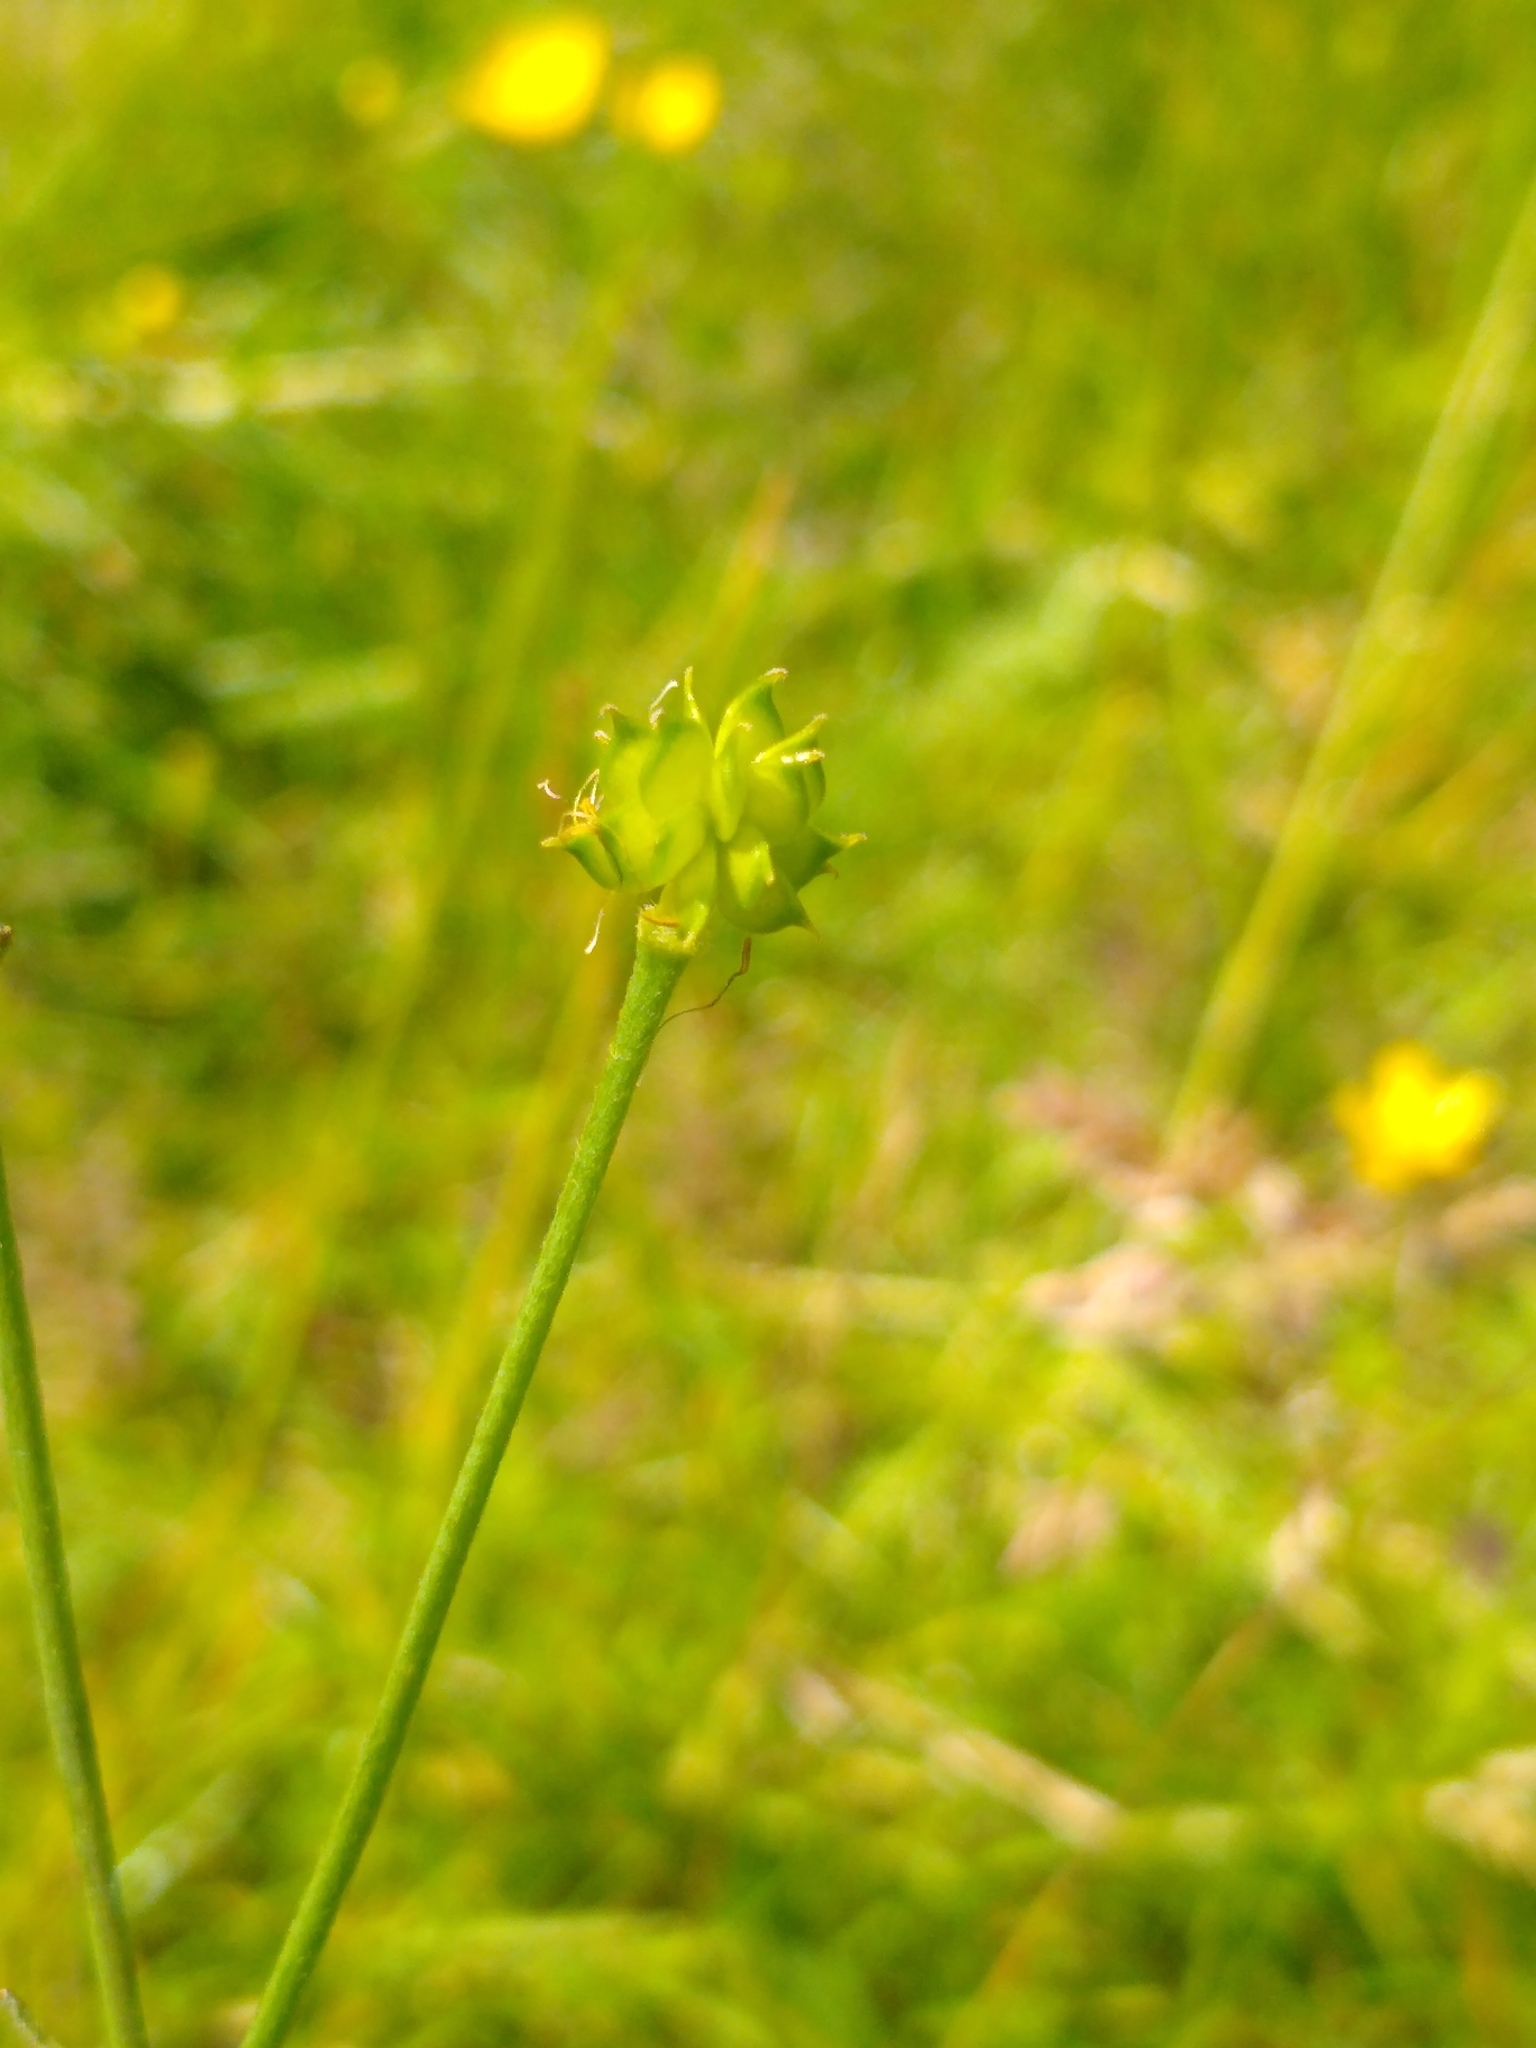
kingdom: Plantae
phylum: Tracheophyta
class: Magnoliopsida
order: Ranunculales
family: Ranunculaceae
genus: Ranunculus
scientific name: Ranunculus acris
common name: Meadow buttercup
